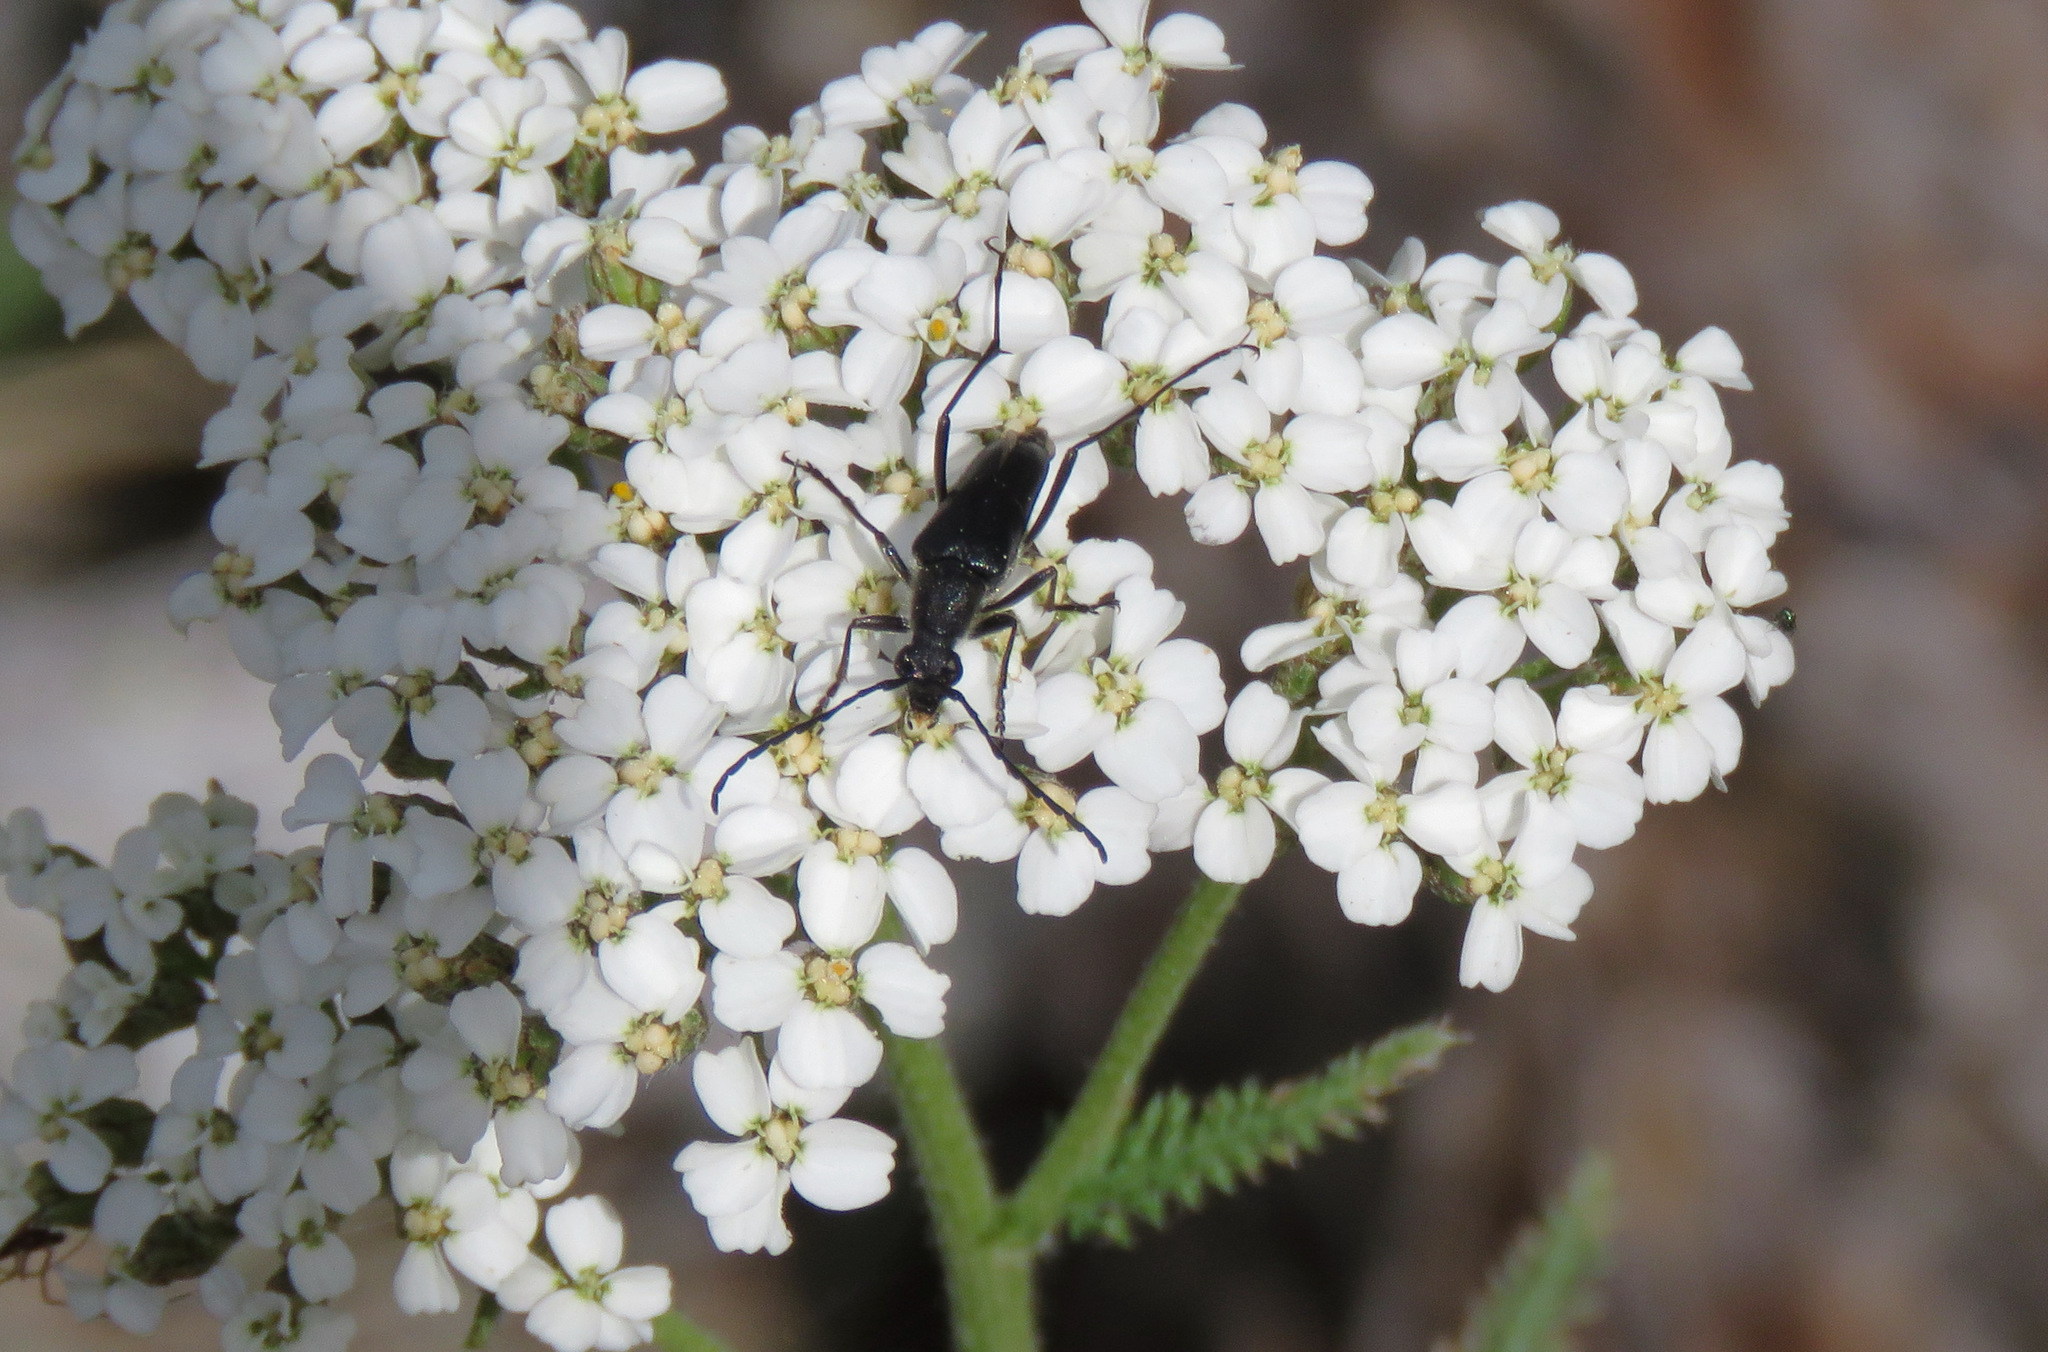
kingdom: Animalia
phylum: Arthropoda
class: Insecta
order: Coleoptera
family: Cerambycidae
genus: Anastrangalia
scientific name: Anastrangalia laetifica
